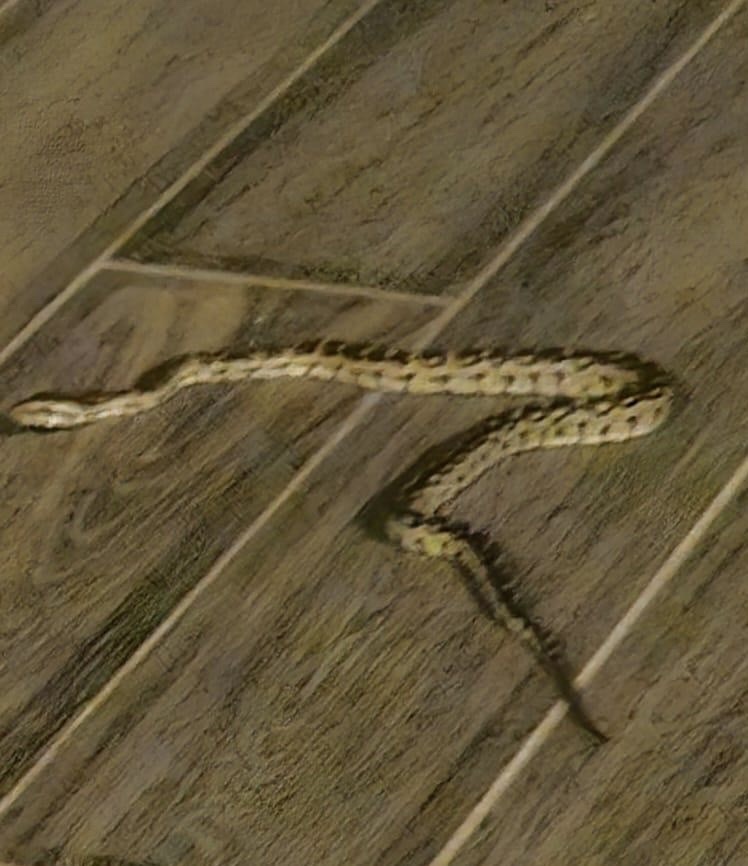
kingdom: Animalia
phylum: Chordata
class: Squamata
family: Pythonidae
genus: Python
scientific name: Python natalensis
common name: Southern african rock python
